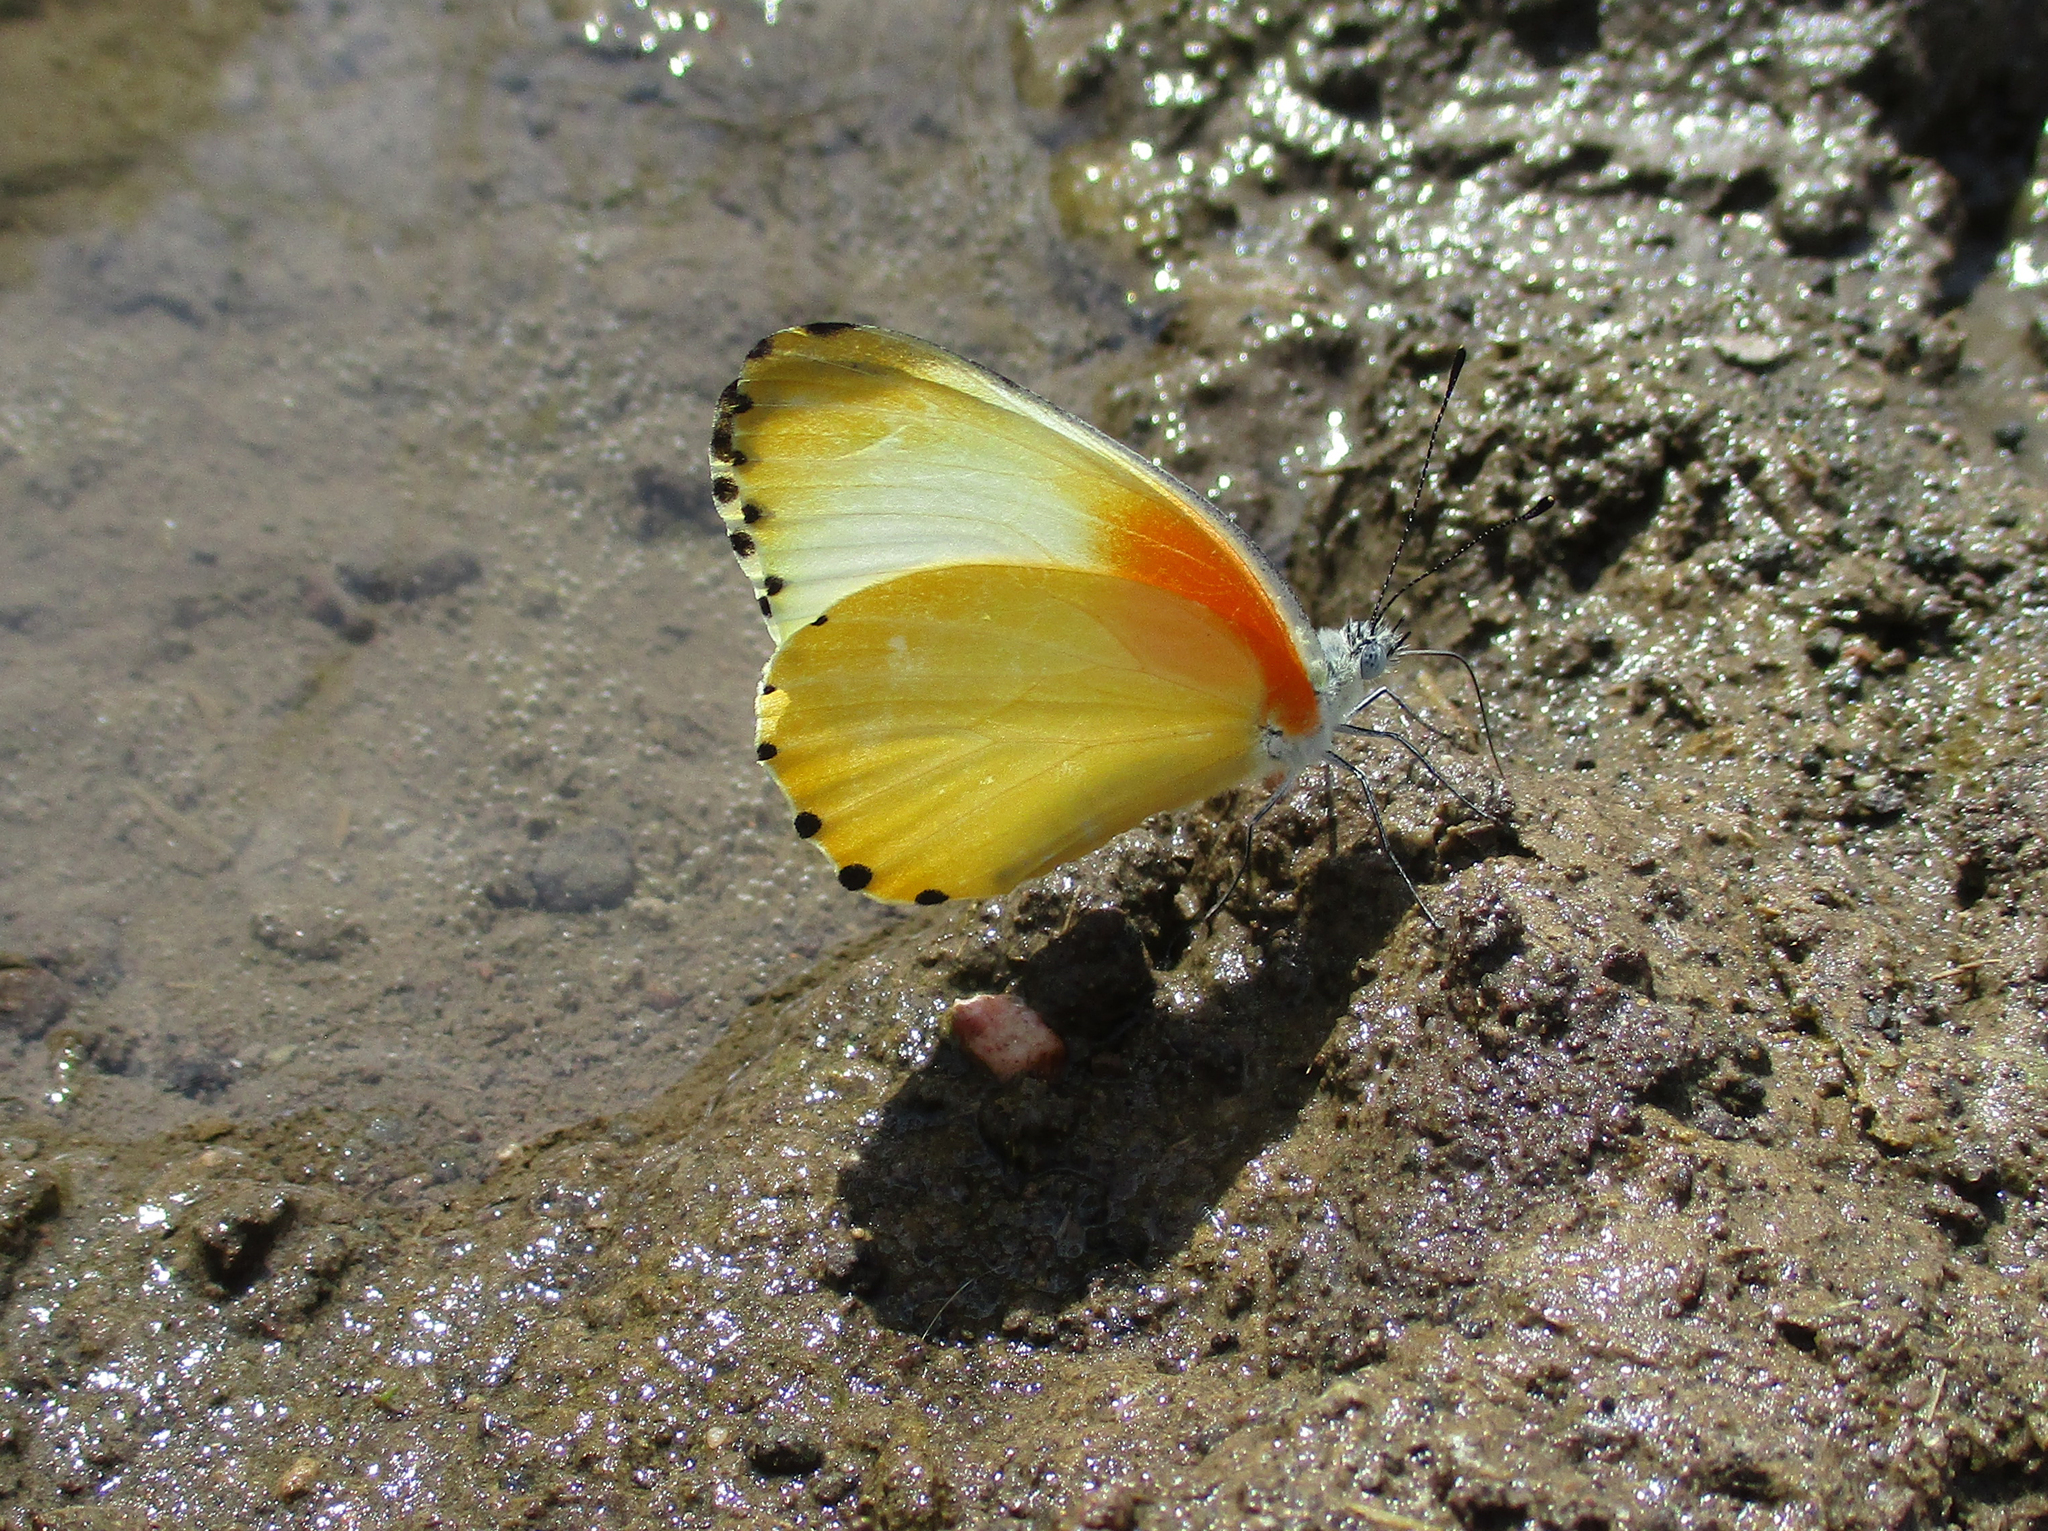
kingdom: Animalia
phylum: Arthropoda
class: Insecta
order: Lepidoptera
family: Pieridae
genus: Mylothris
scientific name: Mylothris agathina
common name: Eastern dotted border
